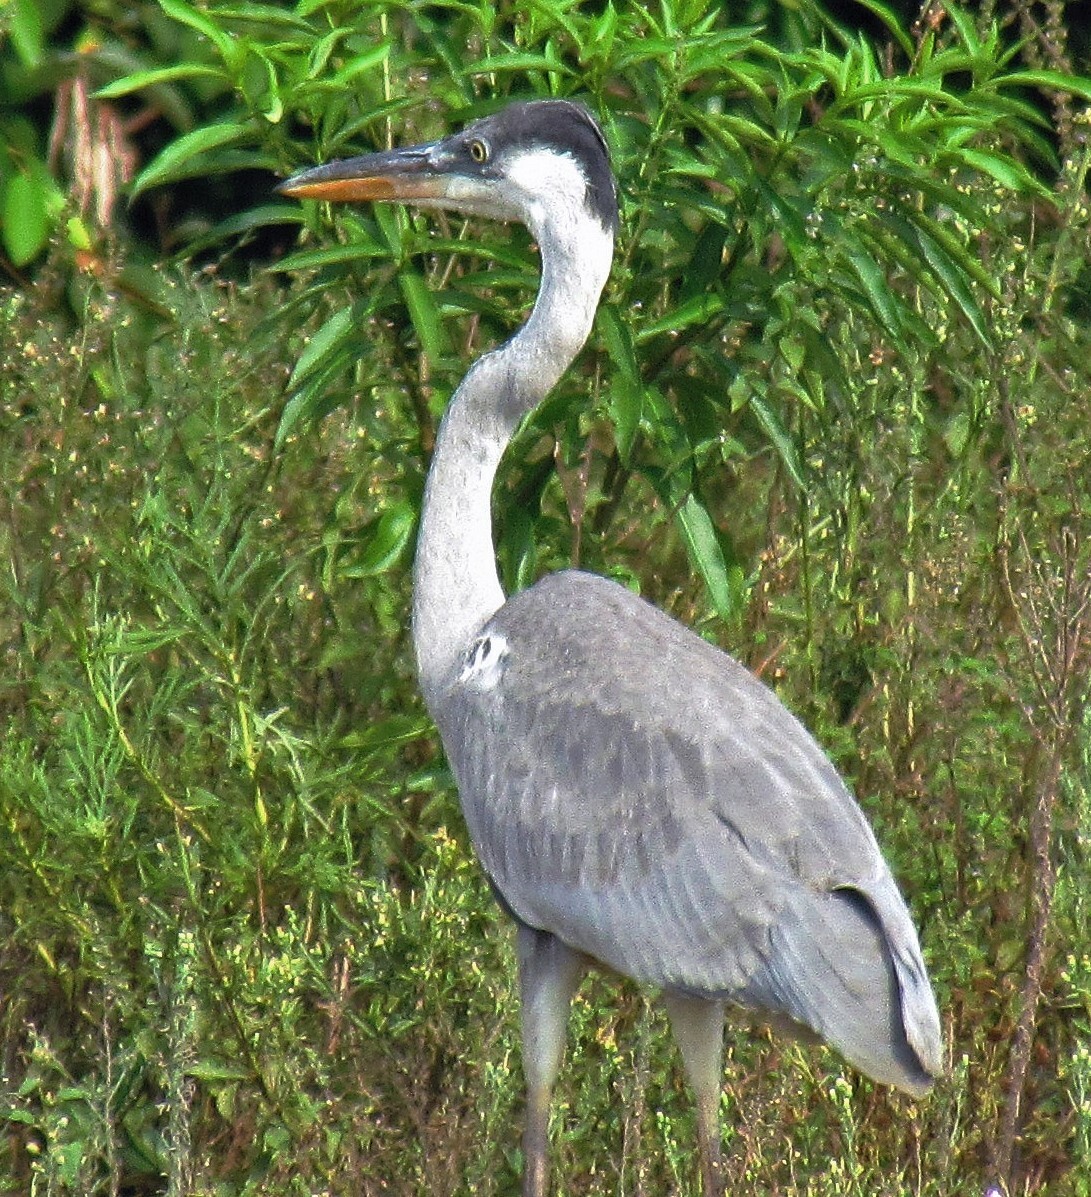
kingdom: Animalia
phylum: Chordata
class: Aves
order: Pelecaniformes
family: Ardeidae
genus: Ardea
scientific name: Ardea cocoi
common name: Cocoi heron
